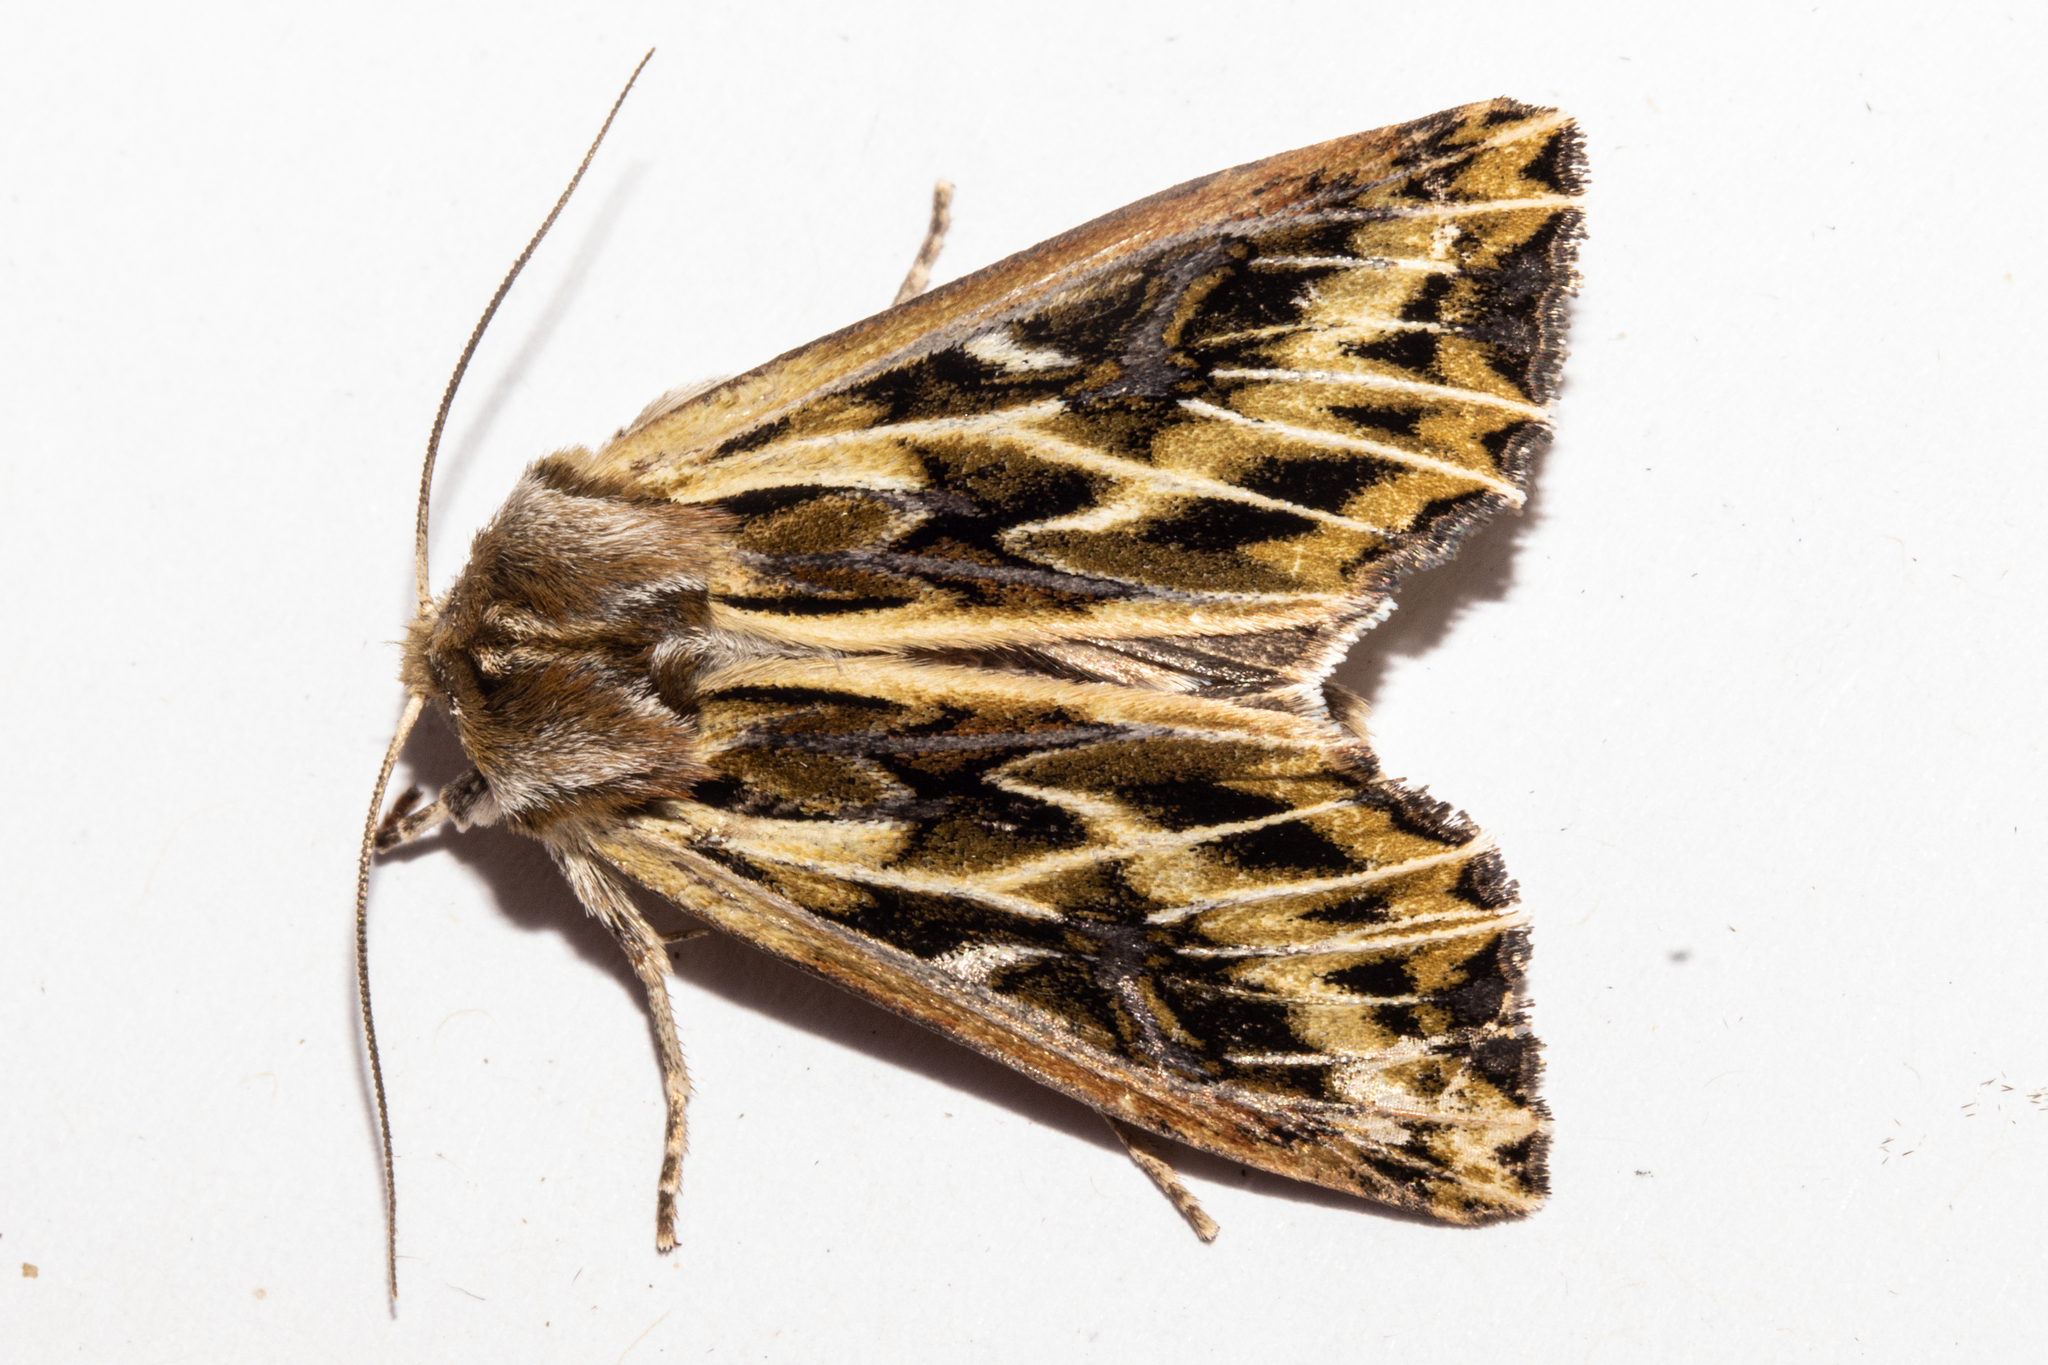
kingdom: Animalia
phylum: Arthropoda
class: Insecta
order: Lepidoptera
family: Noctuidae
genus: Ichneutica
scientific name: Ichneutica
